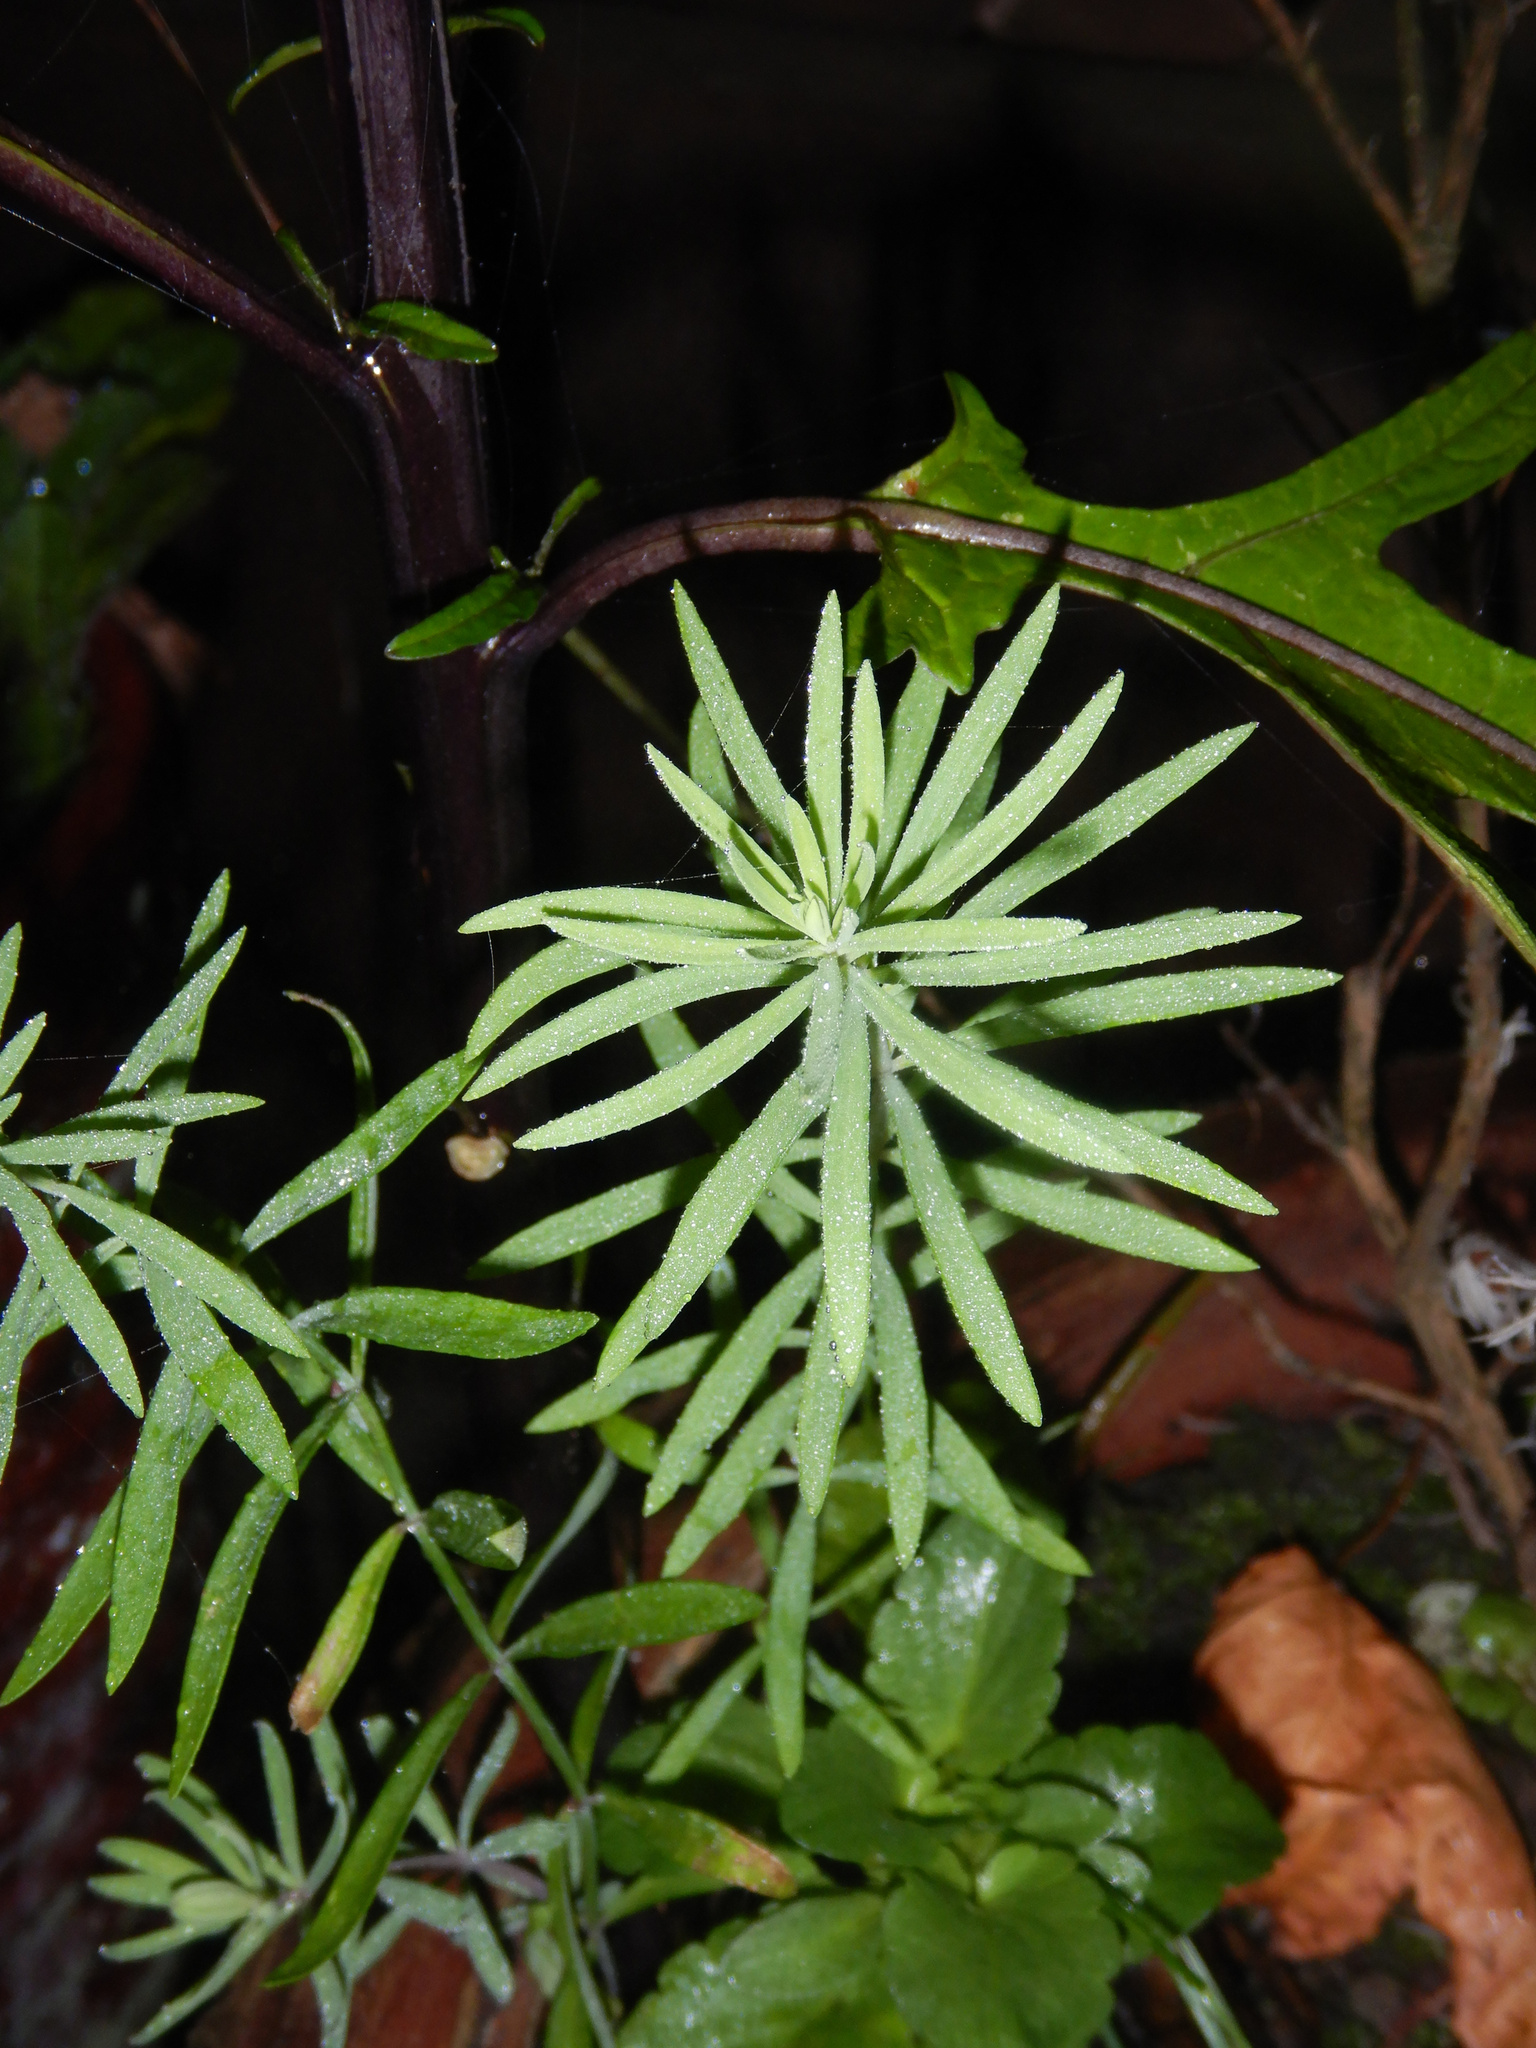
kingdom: Plantae
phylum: Tracheophyta
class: Magnoliopsida
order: Lamiales
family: Plantaginaceae
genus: Linaria
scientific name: Linaria purpurea
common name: Purple toadflax
